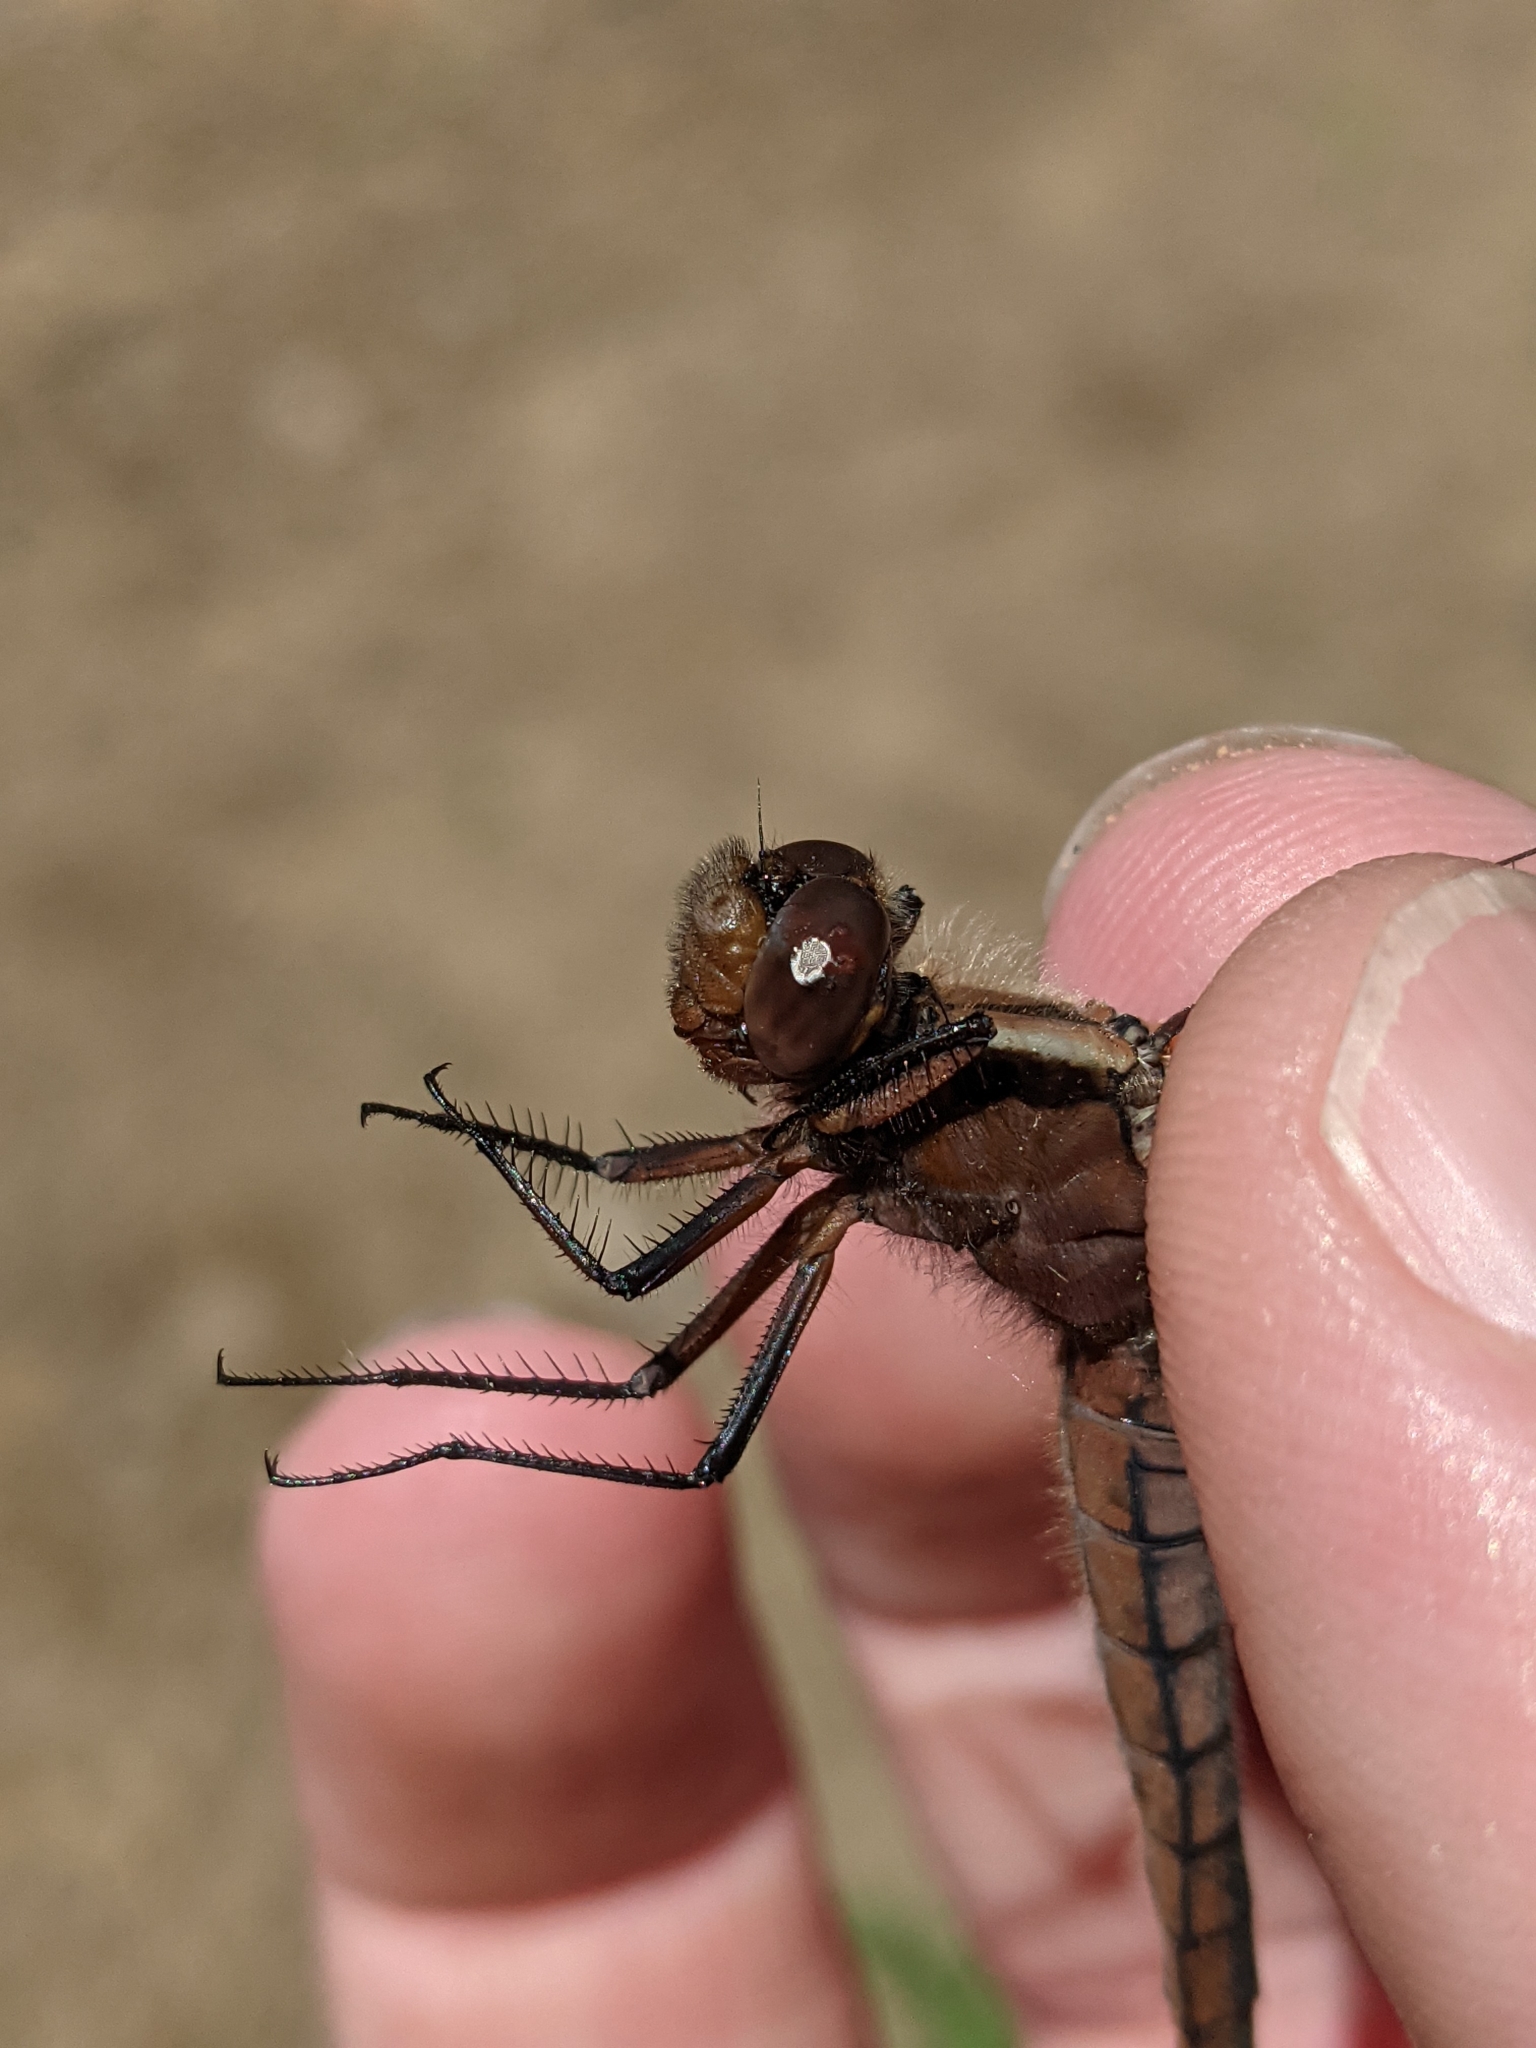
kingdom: Animalia
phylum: Arthropoda
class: Insecta
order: Odonata
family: Libellulidae
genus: Ladona
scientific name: Ladona julia
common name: Chalk-fronted corporal
